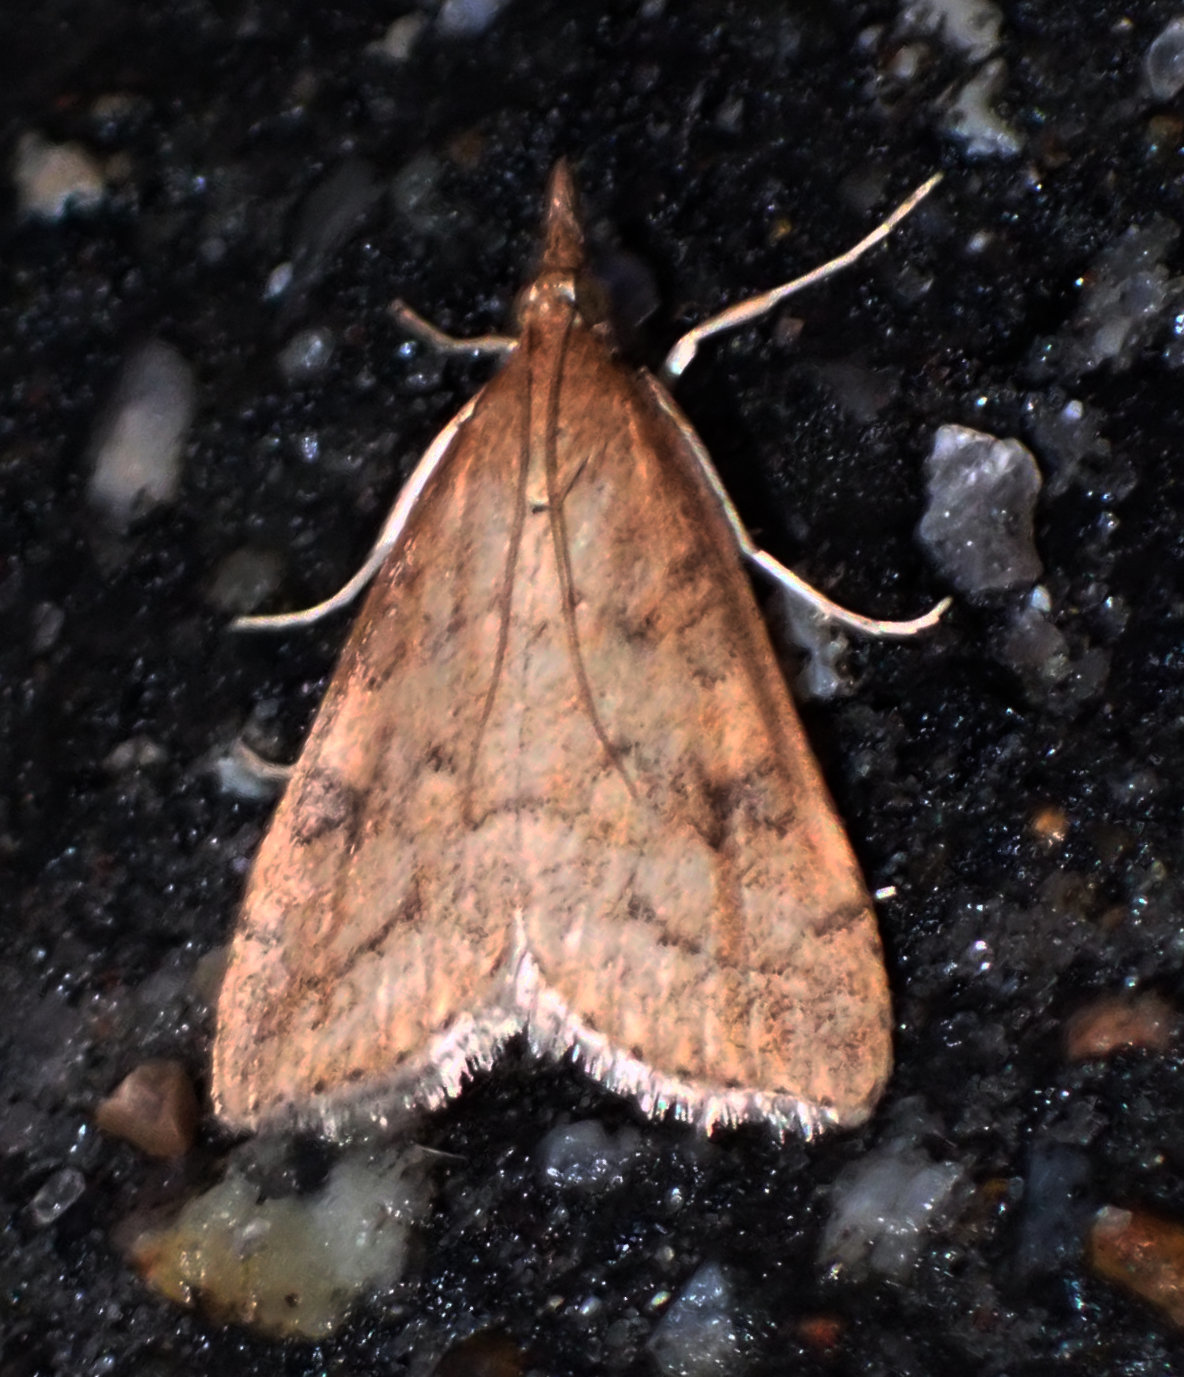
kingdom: Animalia
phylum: Arthropoda
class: Insecta
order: Lepidoptera
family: Crambidae
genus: Udea
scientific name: Udea rubigalis
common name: Celery leaftier moth
